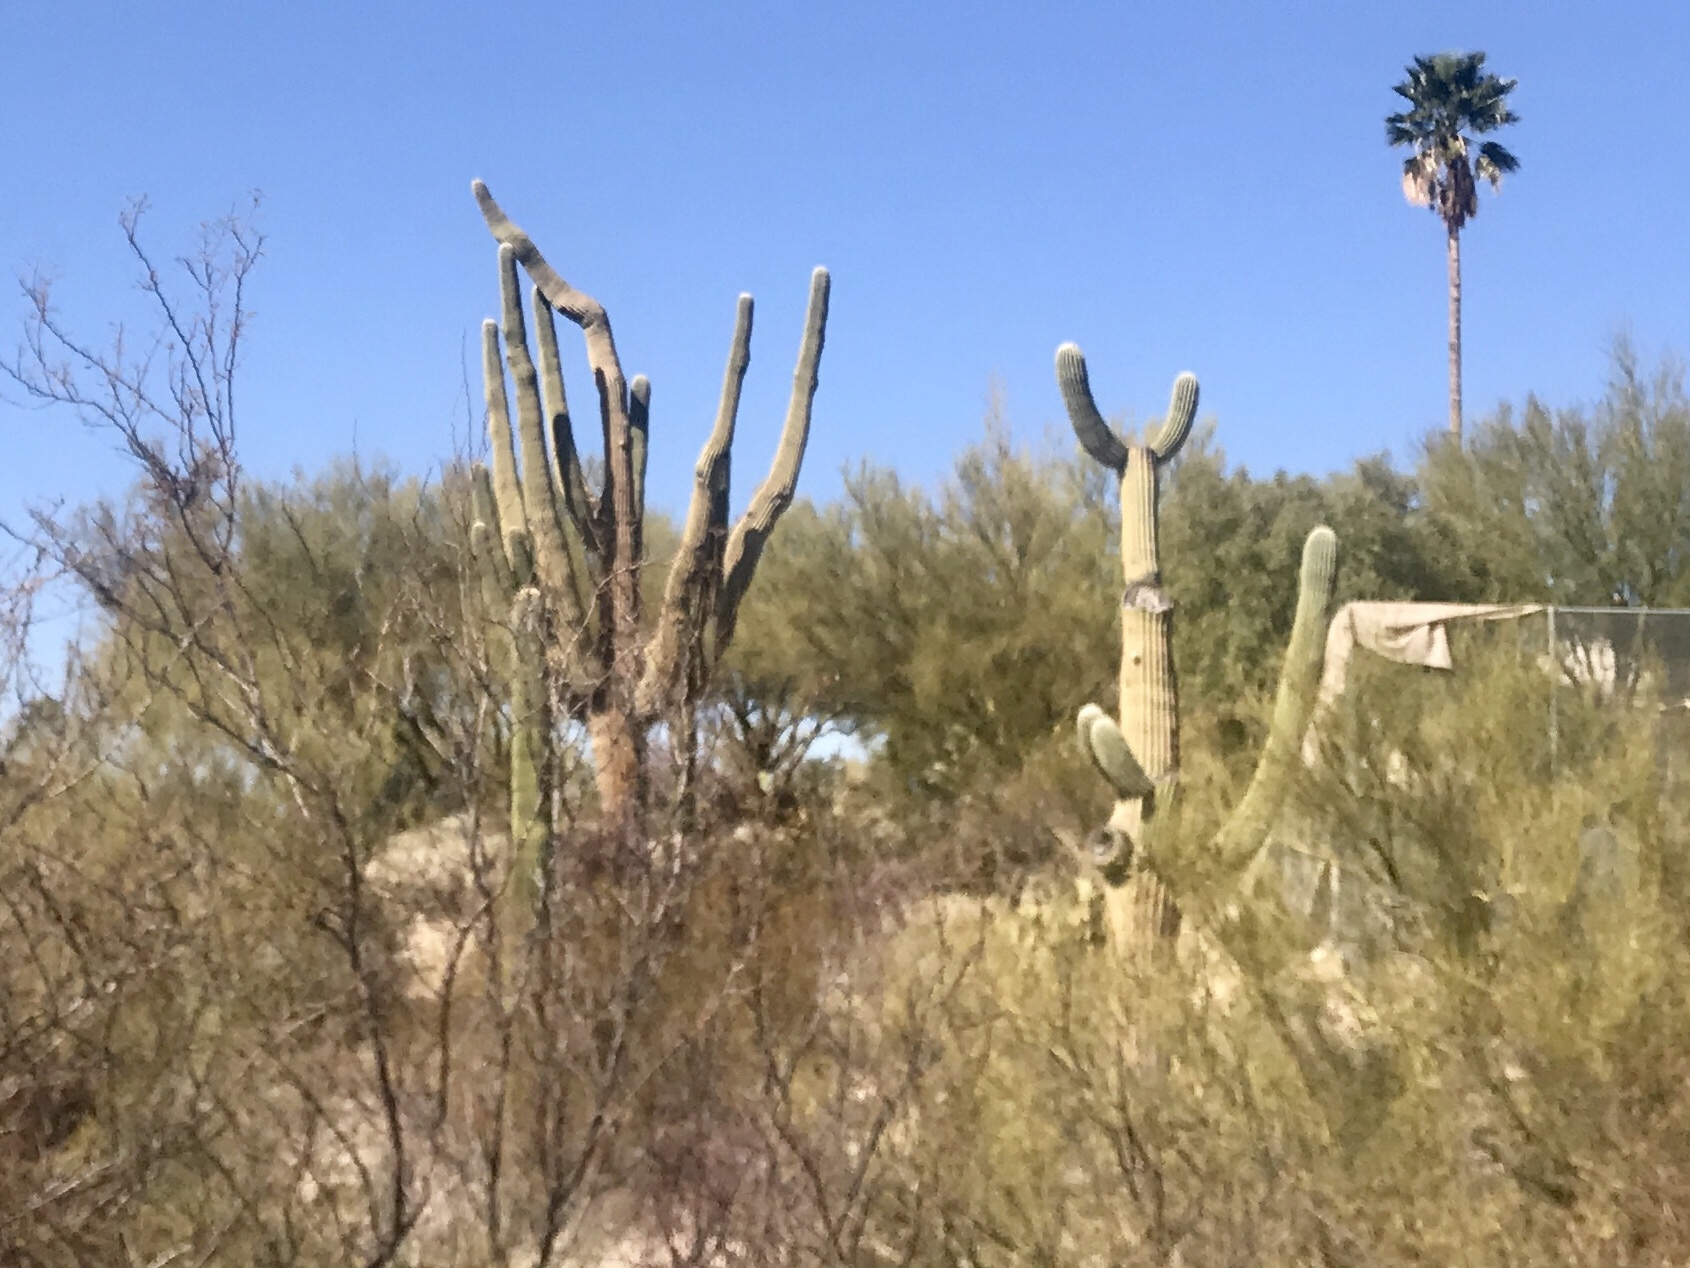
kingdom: Plantae
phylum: Tracheophyta
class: Magnoliopsida
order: Caryophyllales
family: Cactaceae
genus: Carnegiea
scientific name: Carnegiea gigantea
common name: Saguaro
